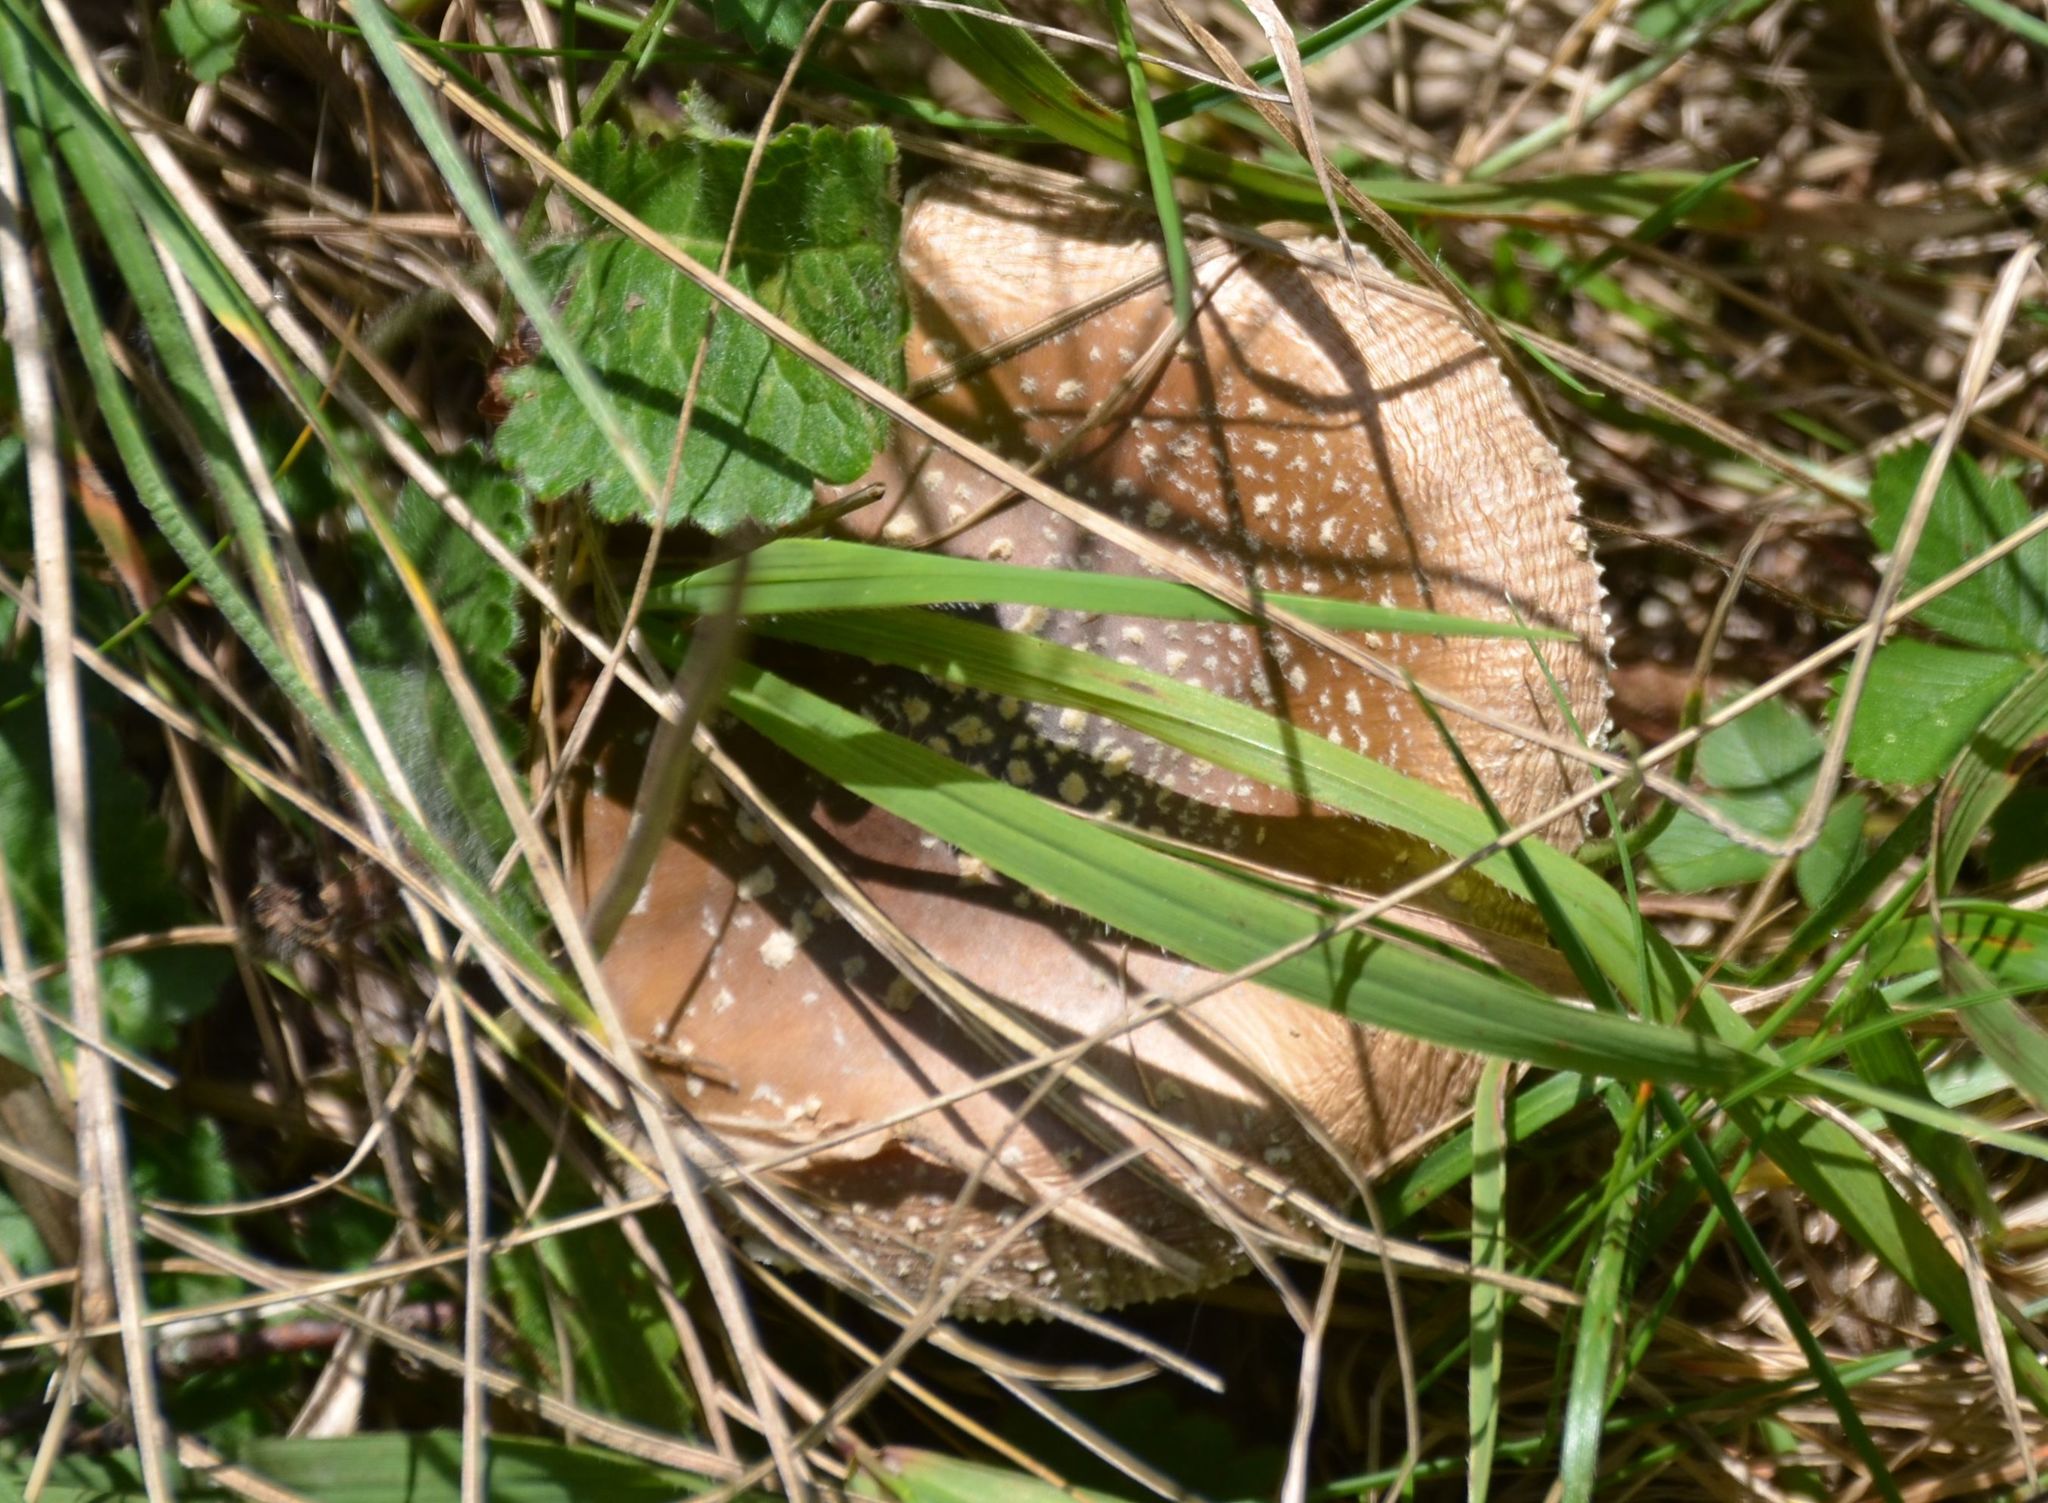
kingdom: Fungi
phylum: Basidiomycota
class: Agaricomycetes
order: Agaricales
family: Amanitaceae
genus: Amanita
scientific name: Amanita pantherina
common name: Panthercap
